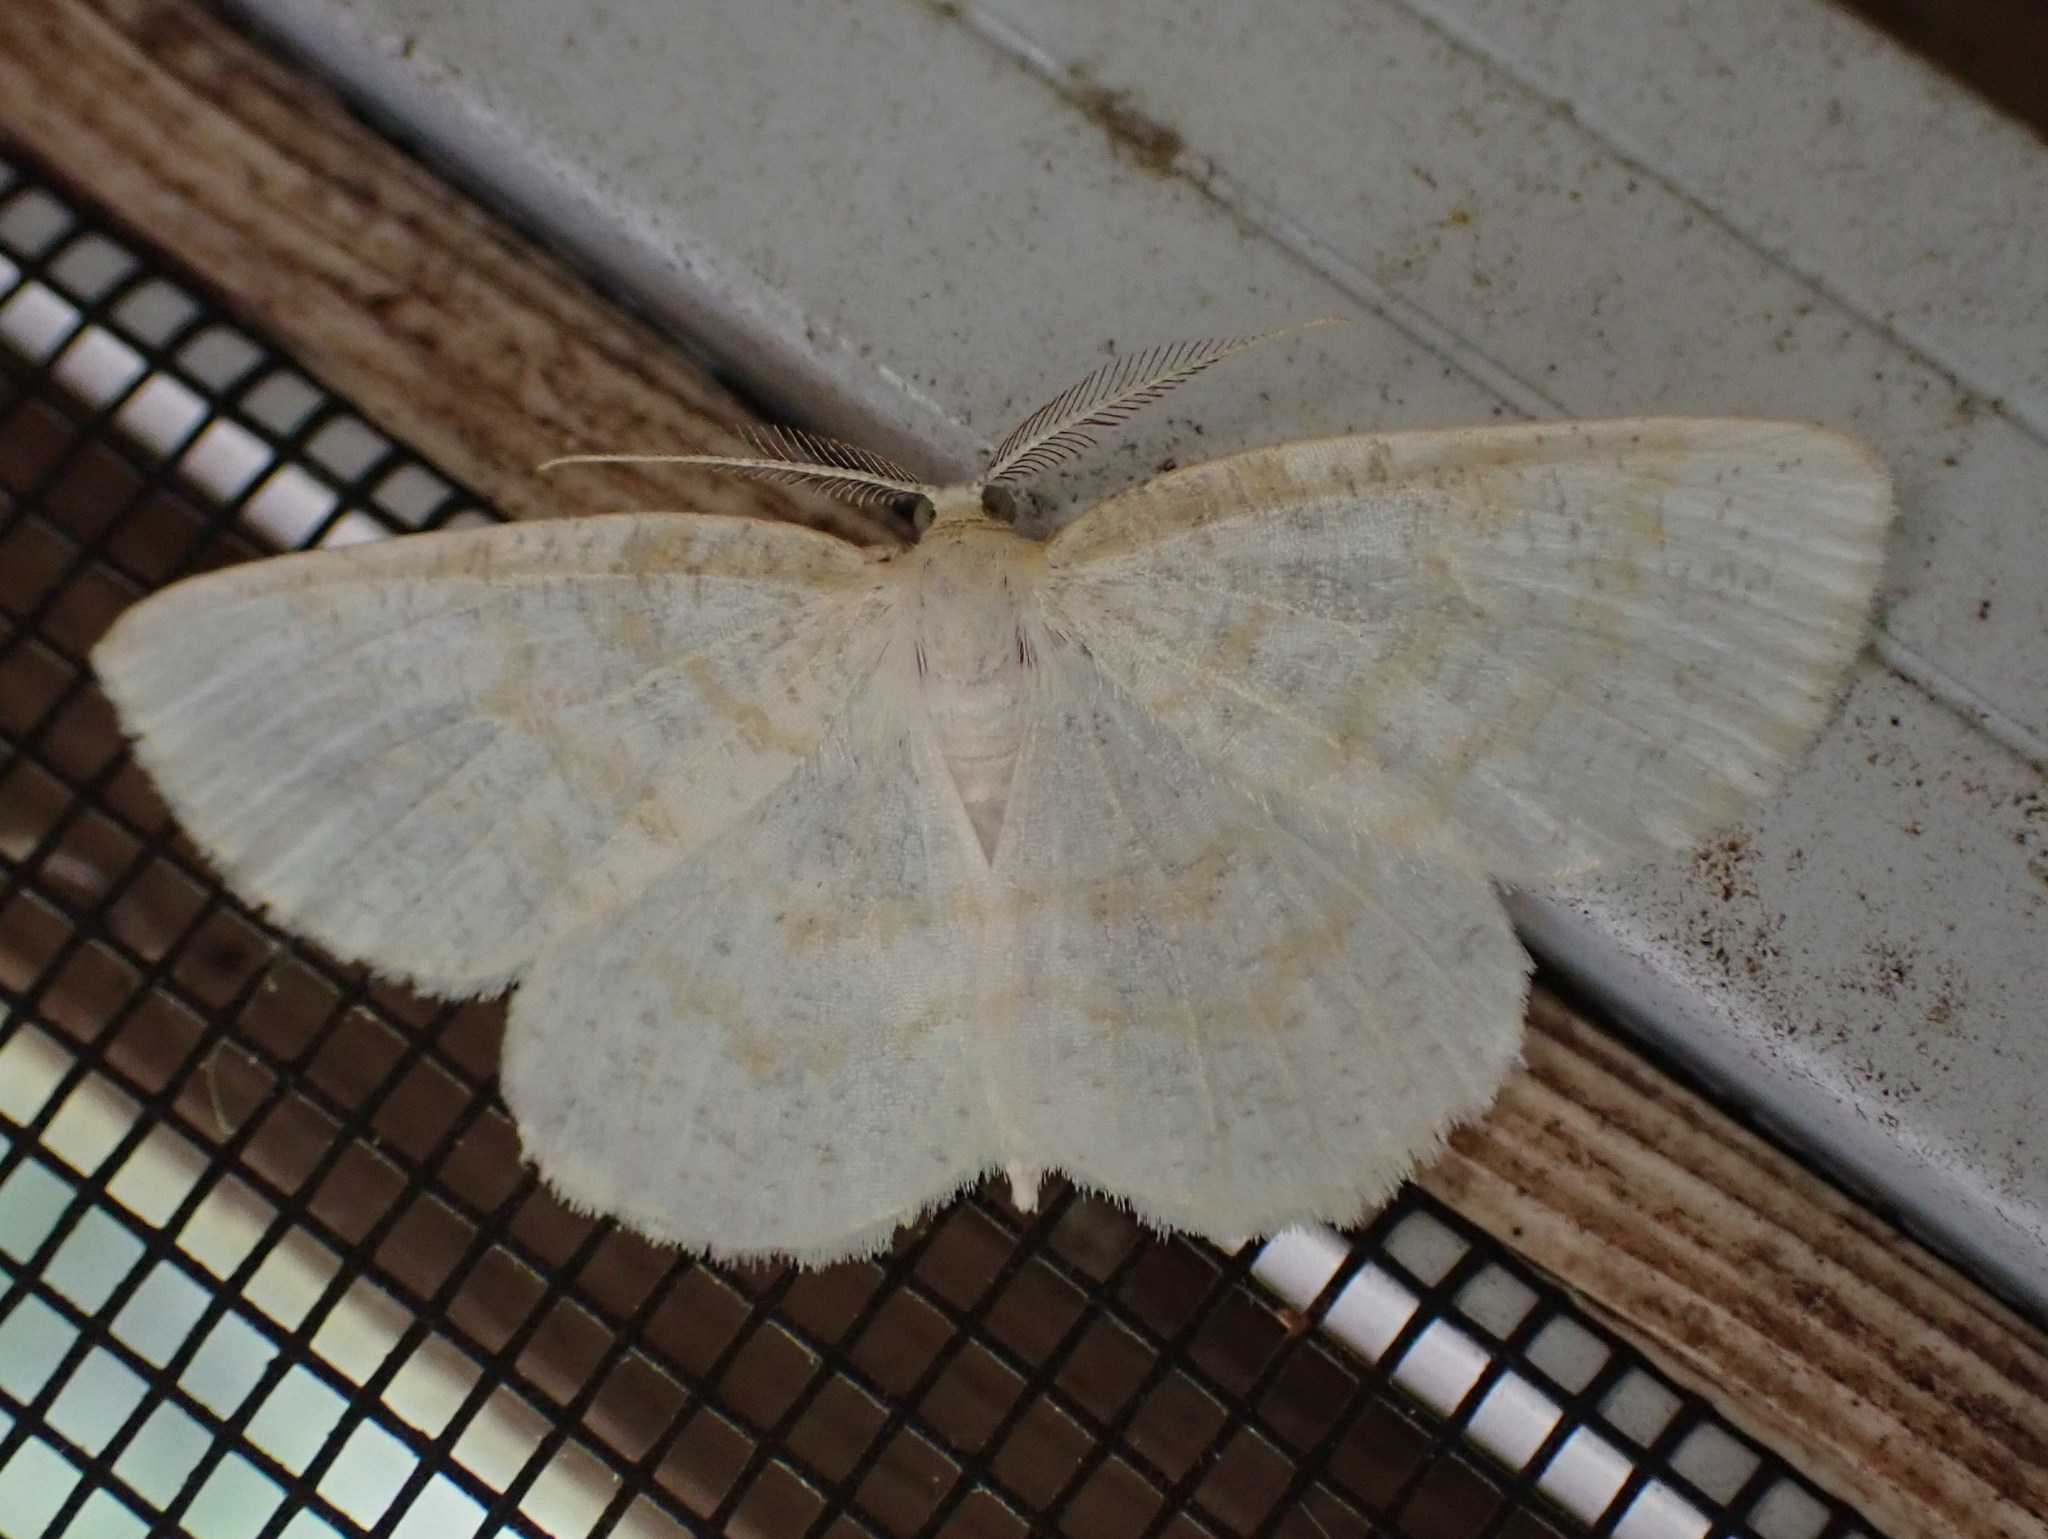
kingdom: Animalia
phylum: Arthropoda
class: Insecta
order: Lepidoptera
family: Geometridae
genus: Cabera
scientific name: Cabera erythemaria
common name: Yellow-dusted cream moth
